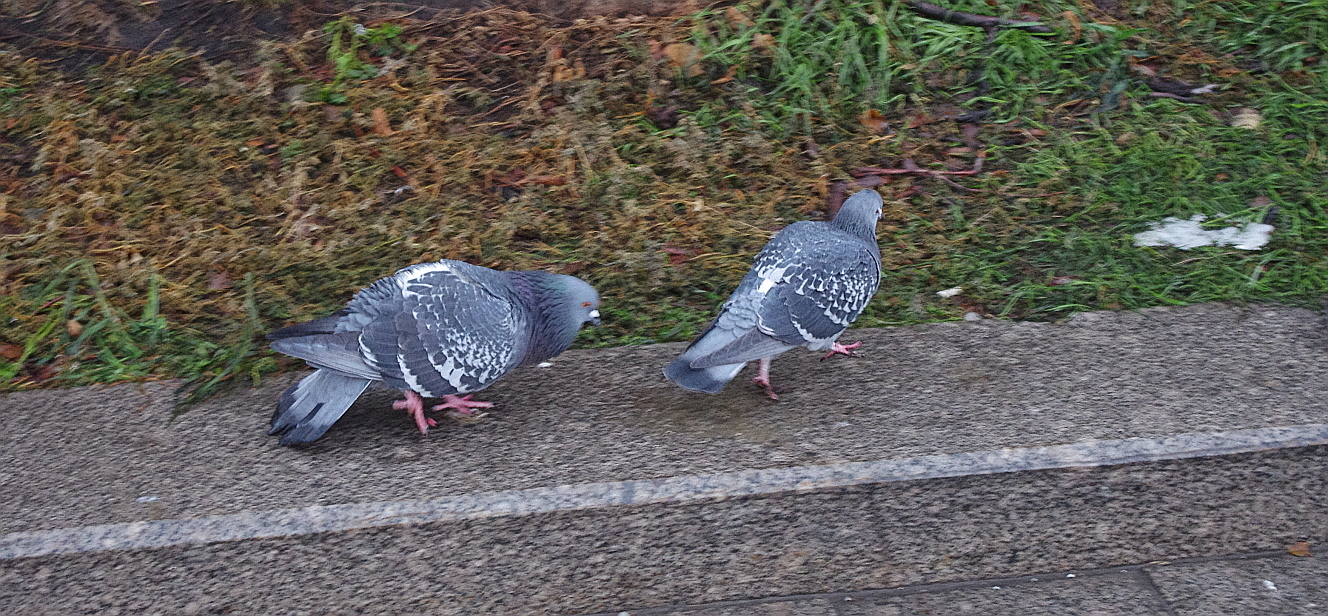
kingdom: Animalia
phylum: Chordata
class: Aves
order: Columbiformes
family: Columbidae
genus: Columba
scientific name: Columba livia
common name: Rock pigeon
